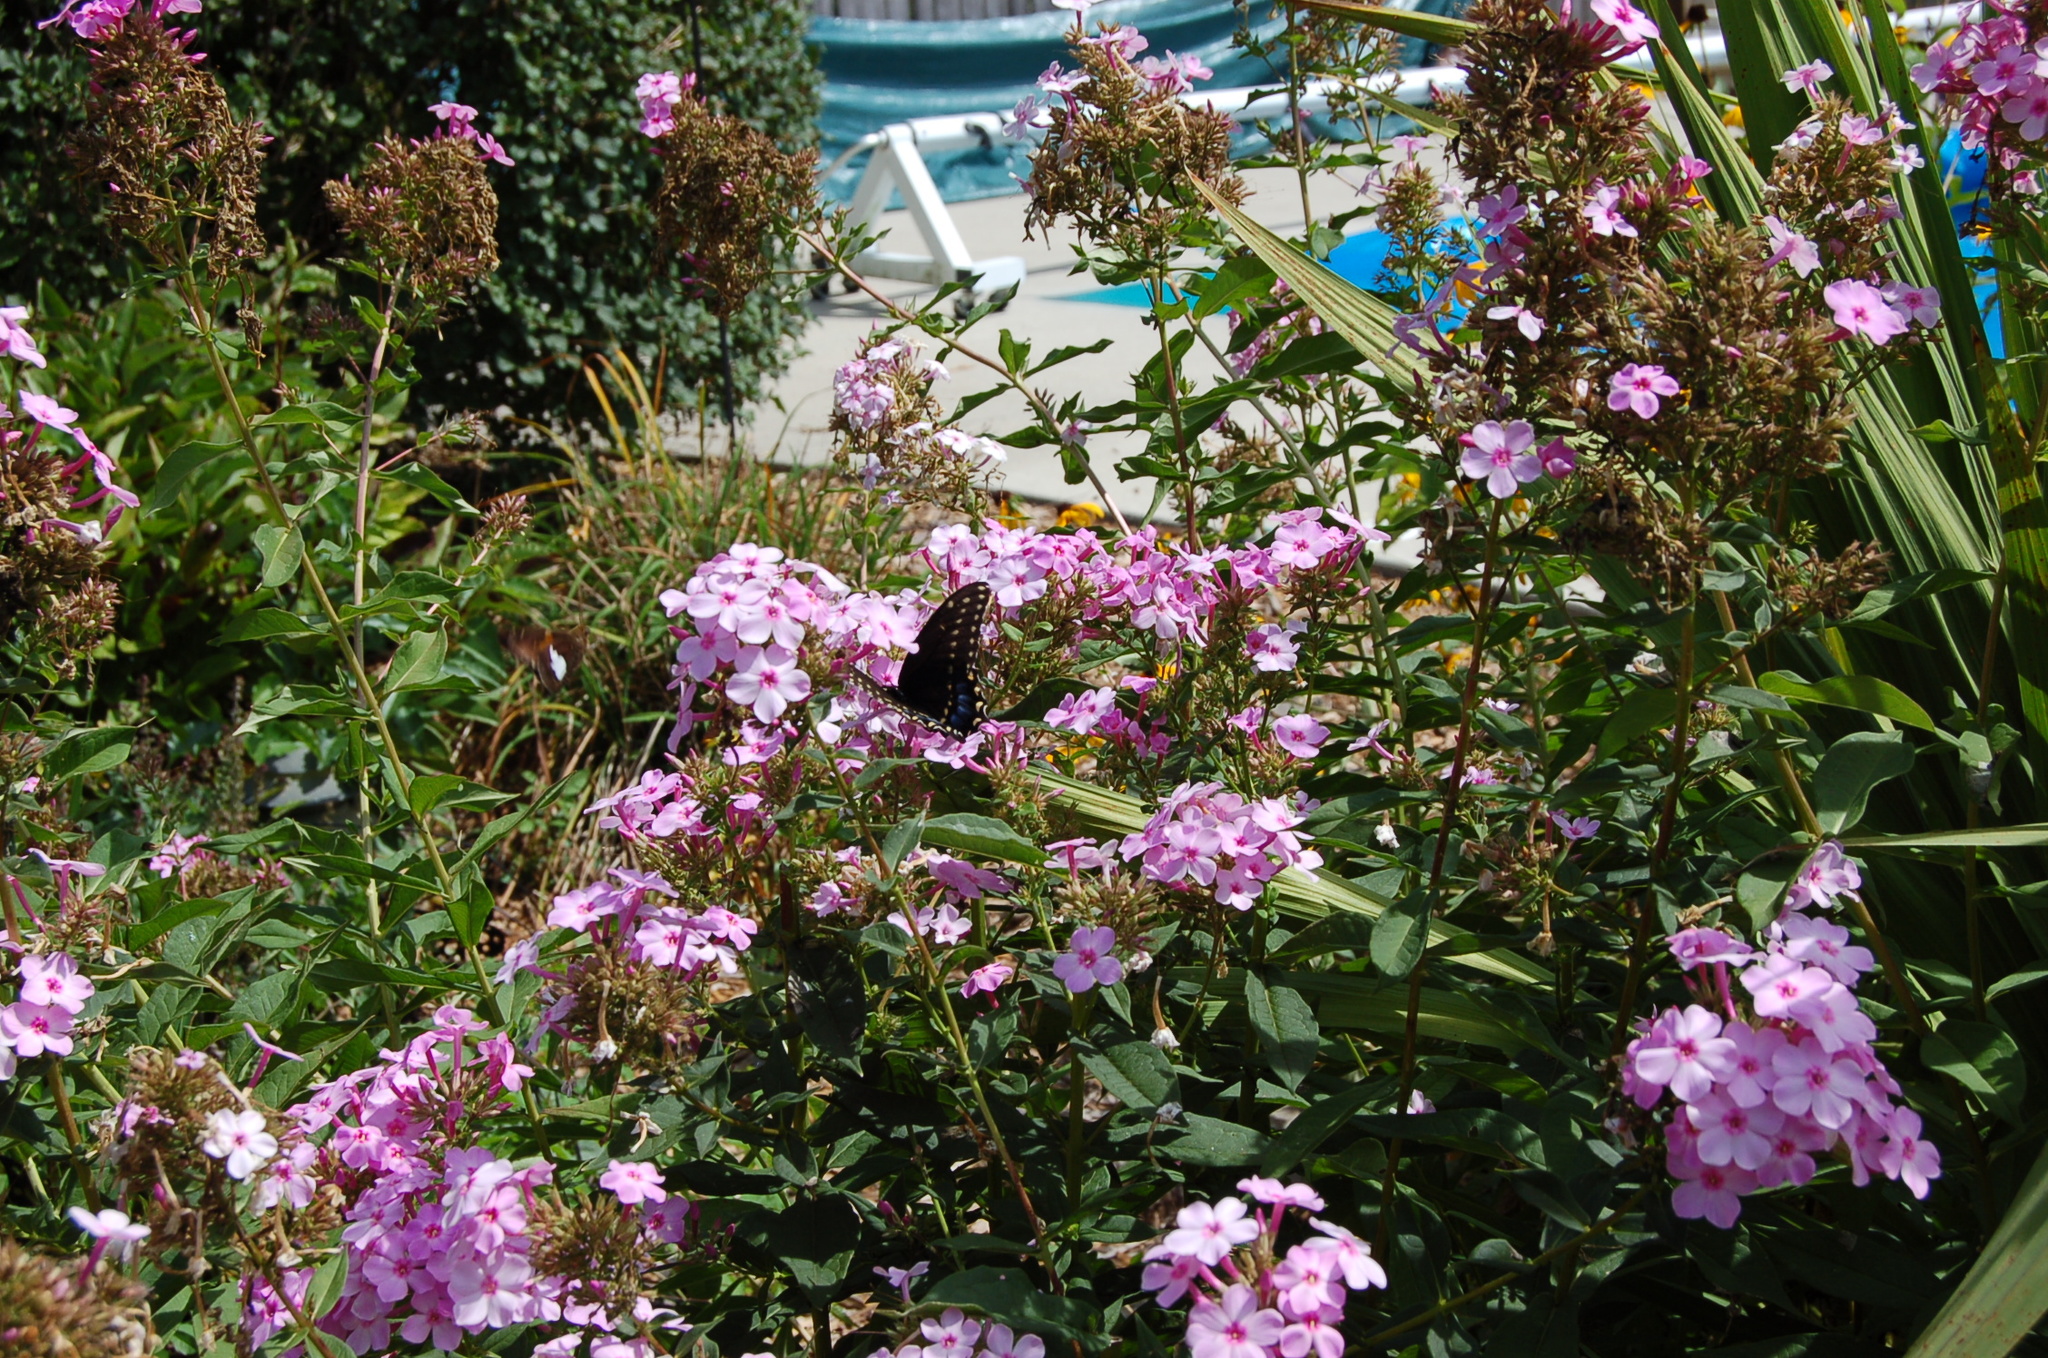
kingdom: Animalia
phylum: Arthropoda
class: Insecta
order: Lepidoptera
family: Papilionidae
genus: Papilio
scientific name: Papilio polyxenes
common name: Black swallowtail
